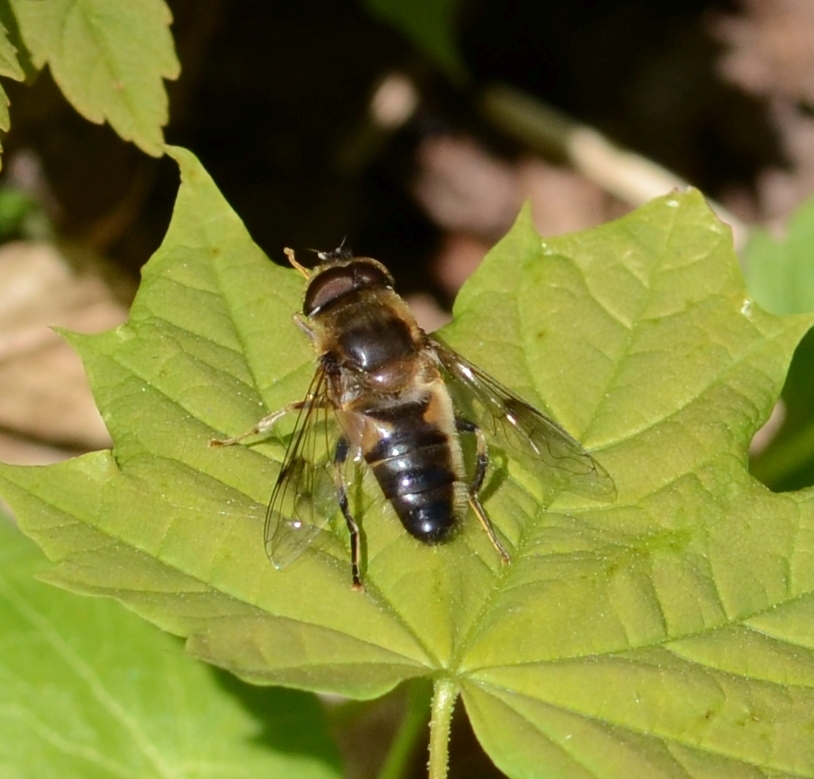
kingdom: Animalia
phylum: Arthropoda
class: Insecta
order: Diptera
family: Syrphidae
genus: Eristalis
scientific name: Eristalis pertinax
